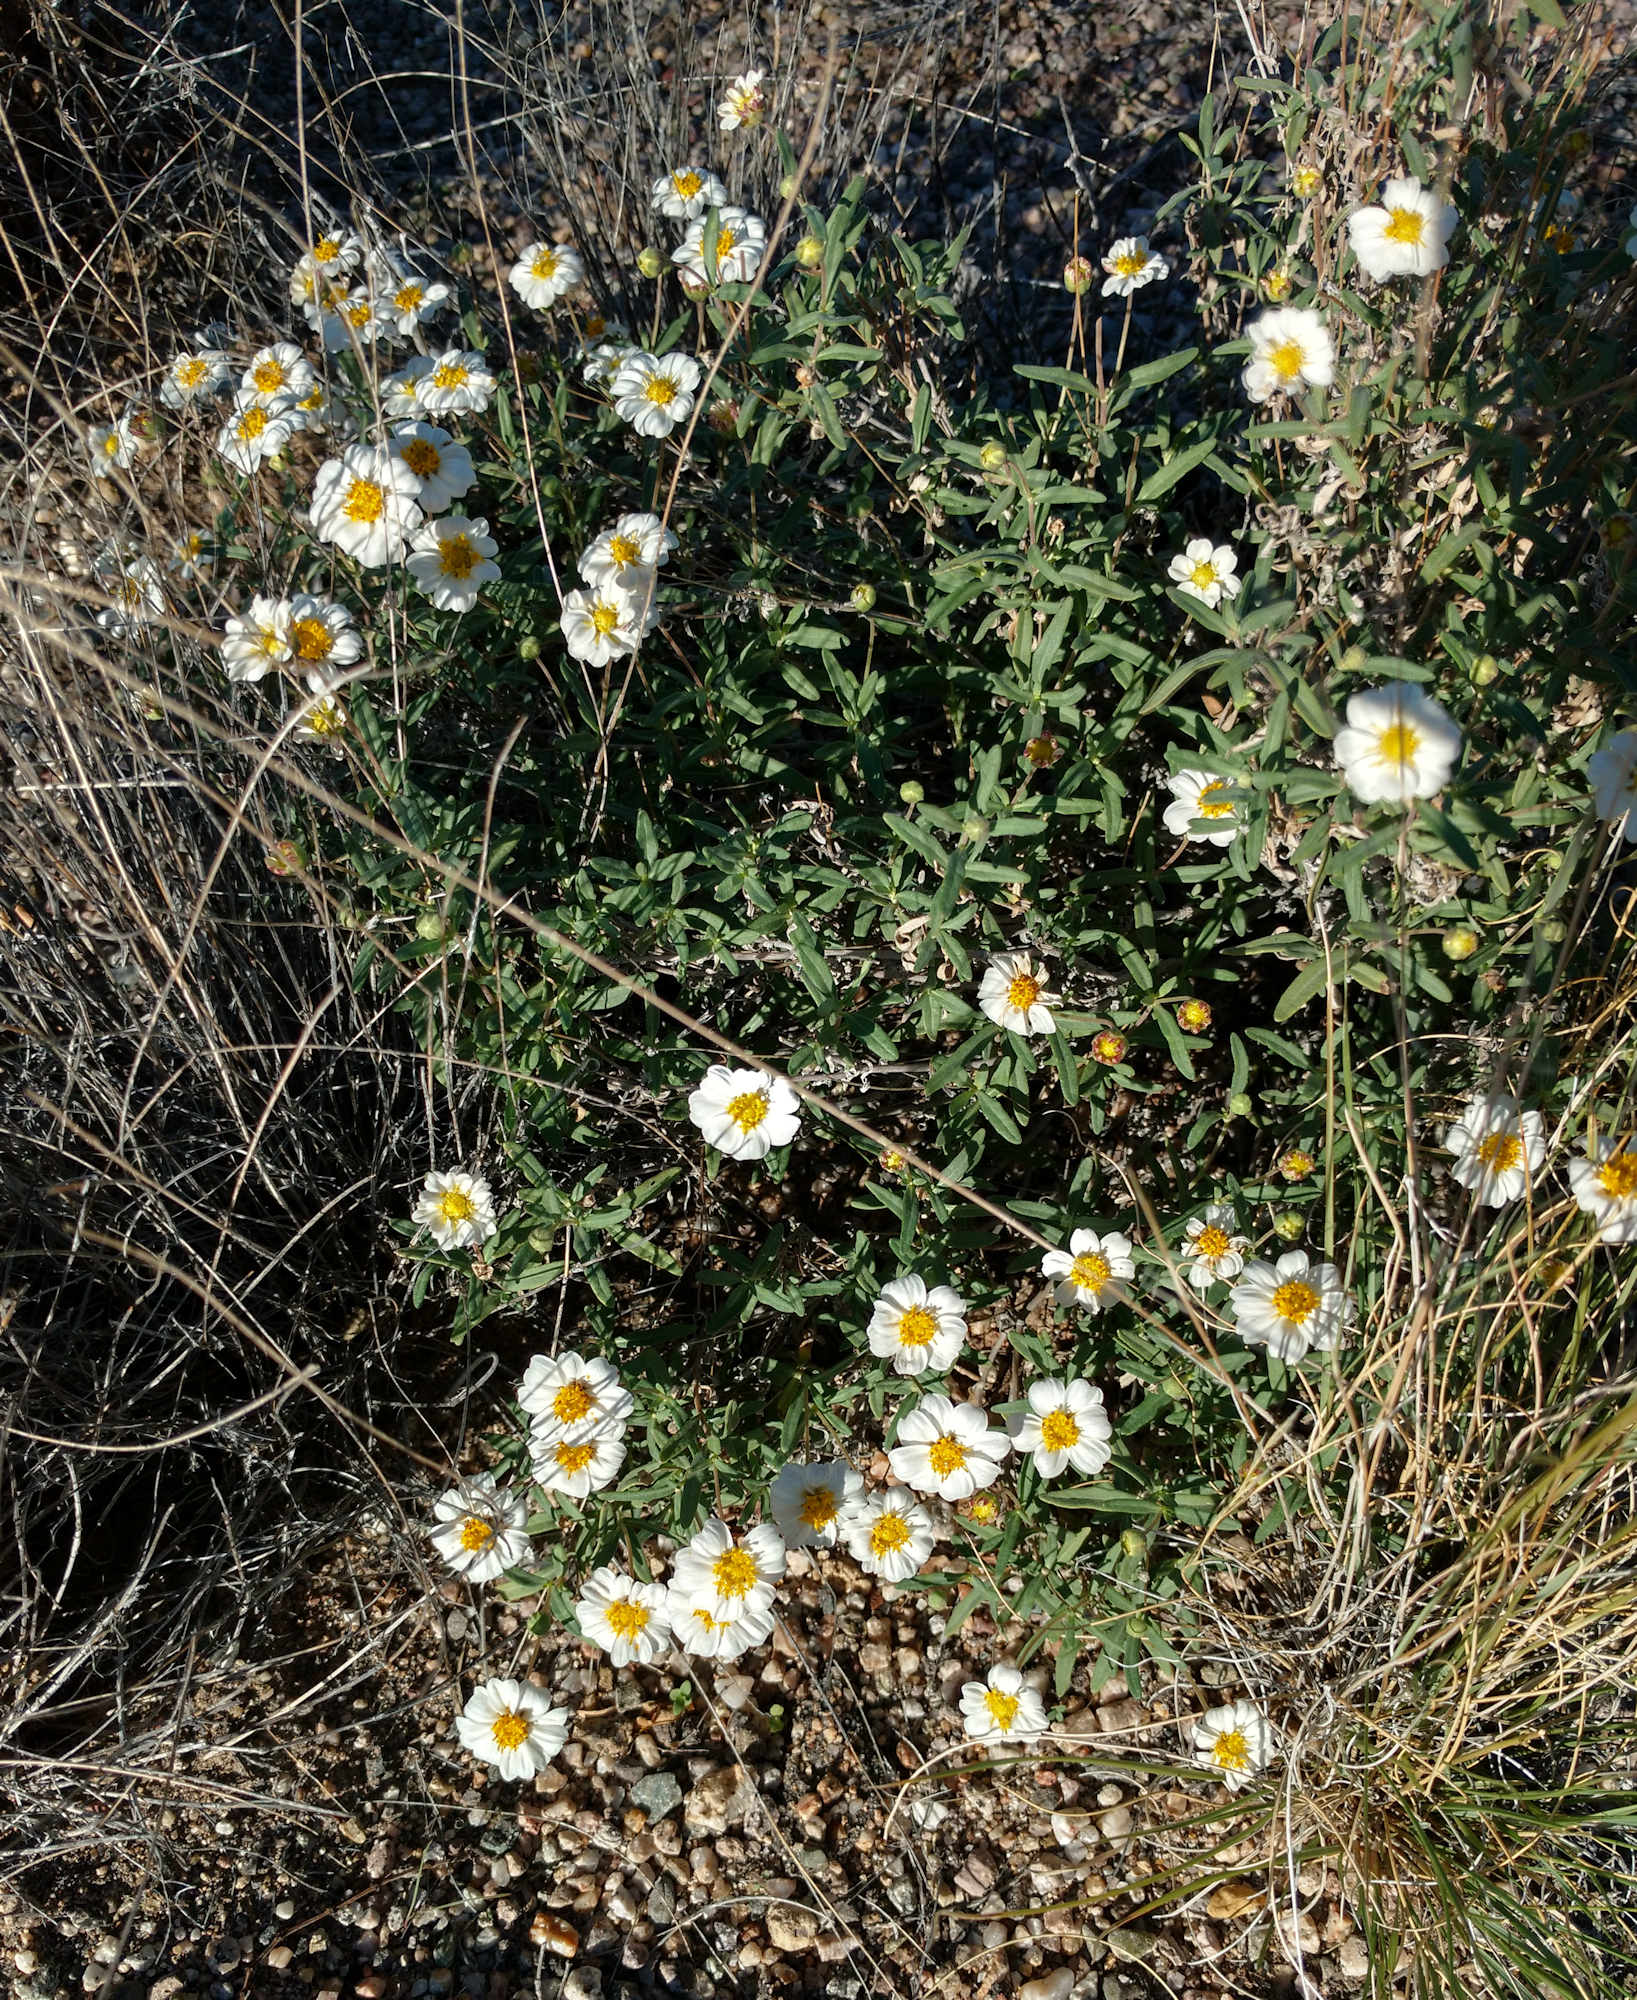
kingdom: Plantae
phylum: Tracheophyta
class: Magnoliopsida
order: Asterales
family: Asteraceae
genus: Melampodium
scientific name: Melampodium leucanthum
